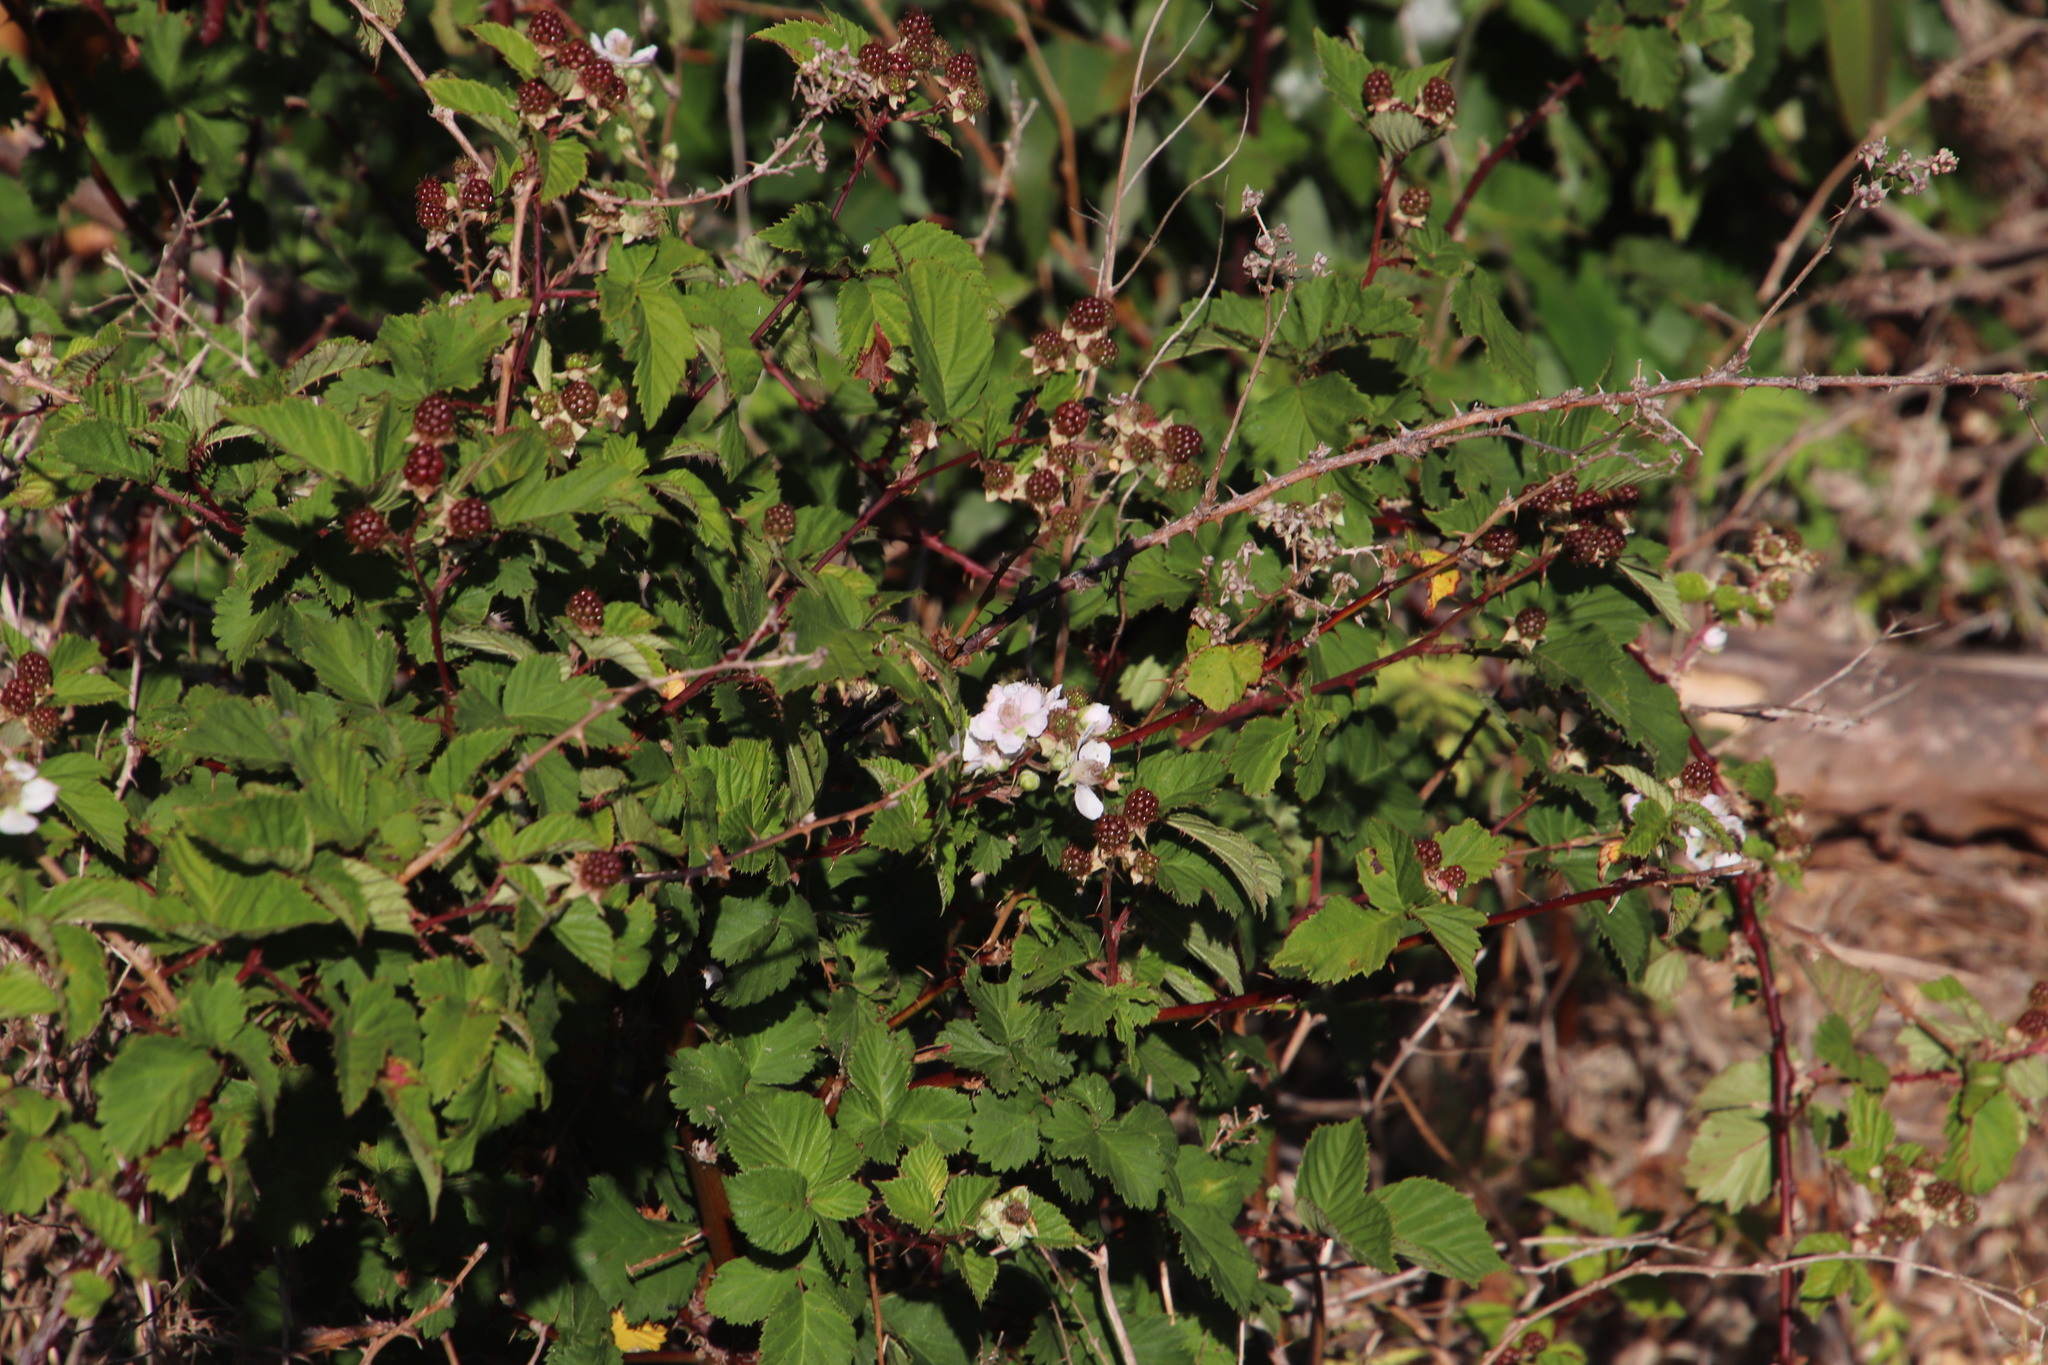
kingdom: Plantae
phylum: Tracheophyta
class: Magnoliopsida
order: Rosales
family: Rosaceae
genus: Rubus
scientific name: Rubus affinis
